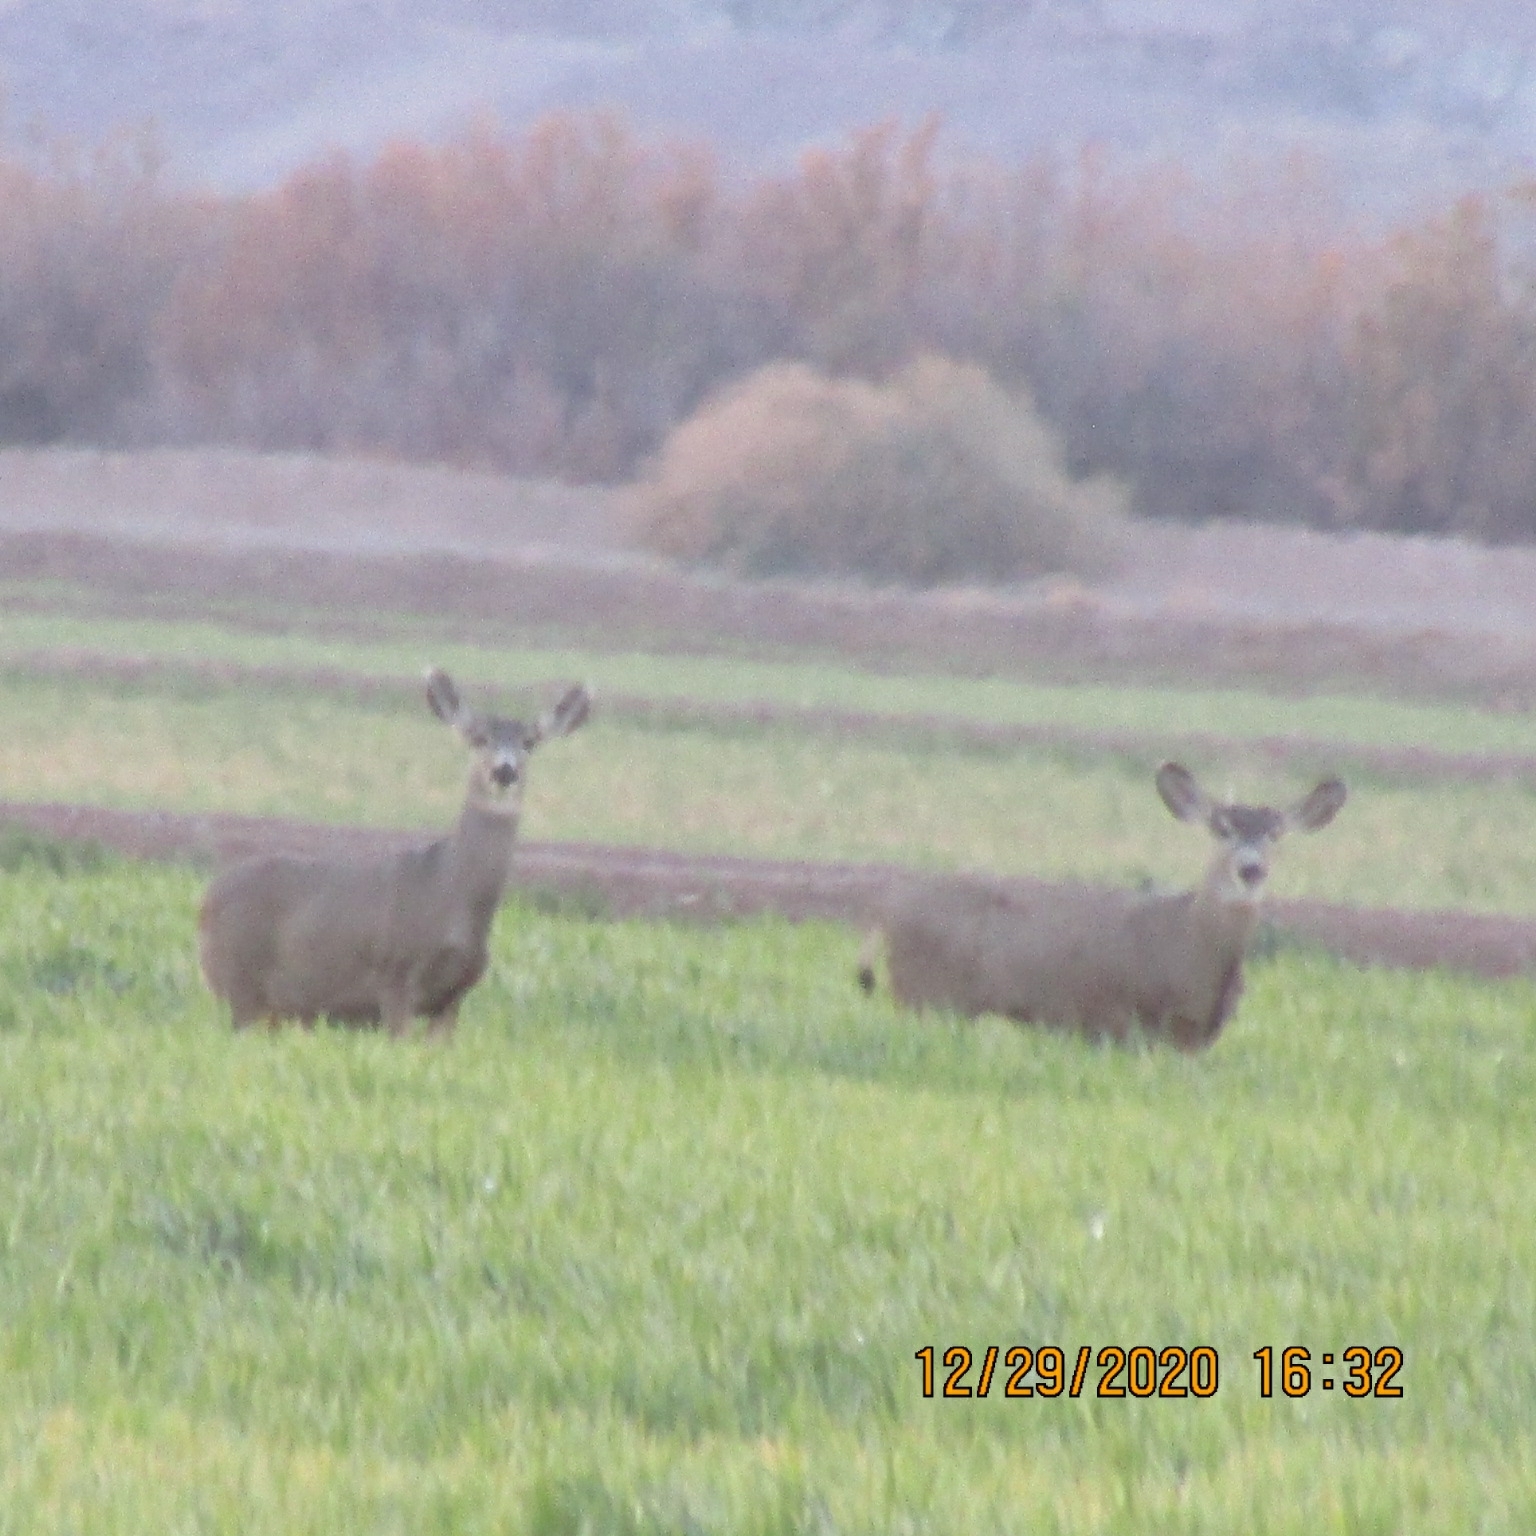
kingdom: Animalia
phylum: Chordata
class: Mammalia
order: Artiodactyla
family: Cervidae
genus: Odocoileus
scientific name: Odocoileus hemionus
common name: Mule deer
